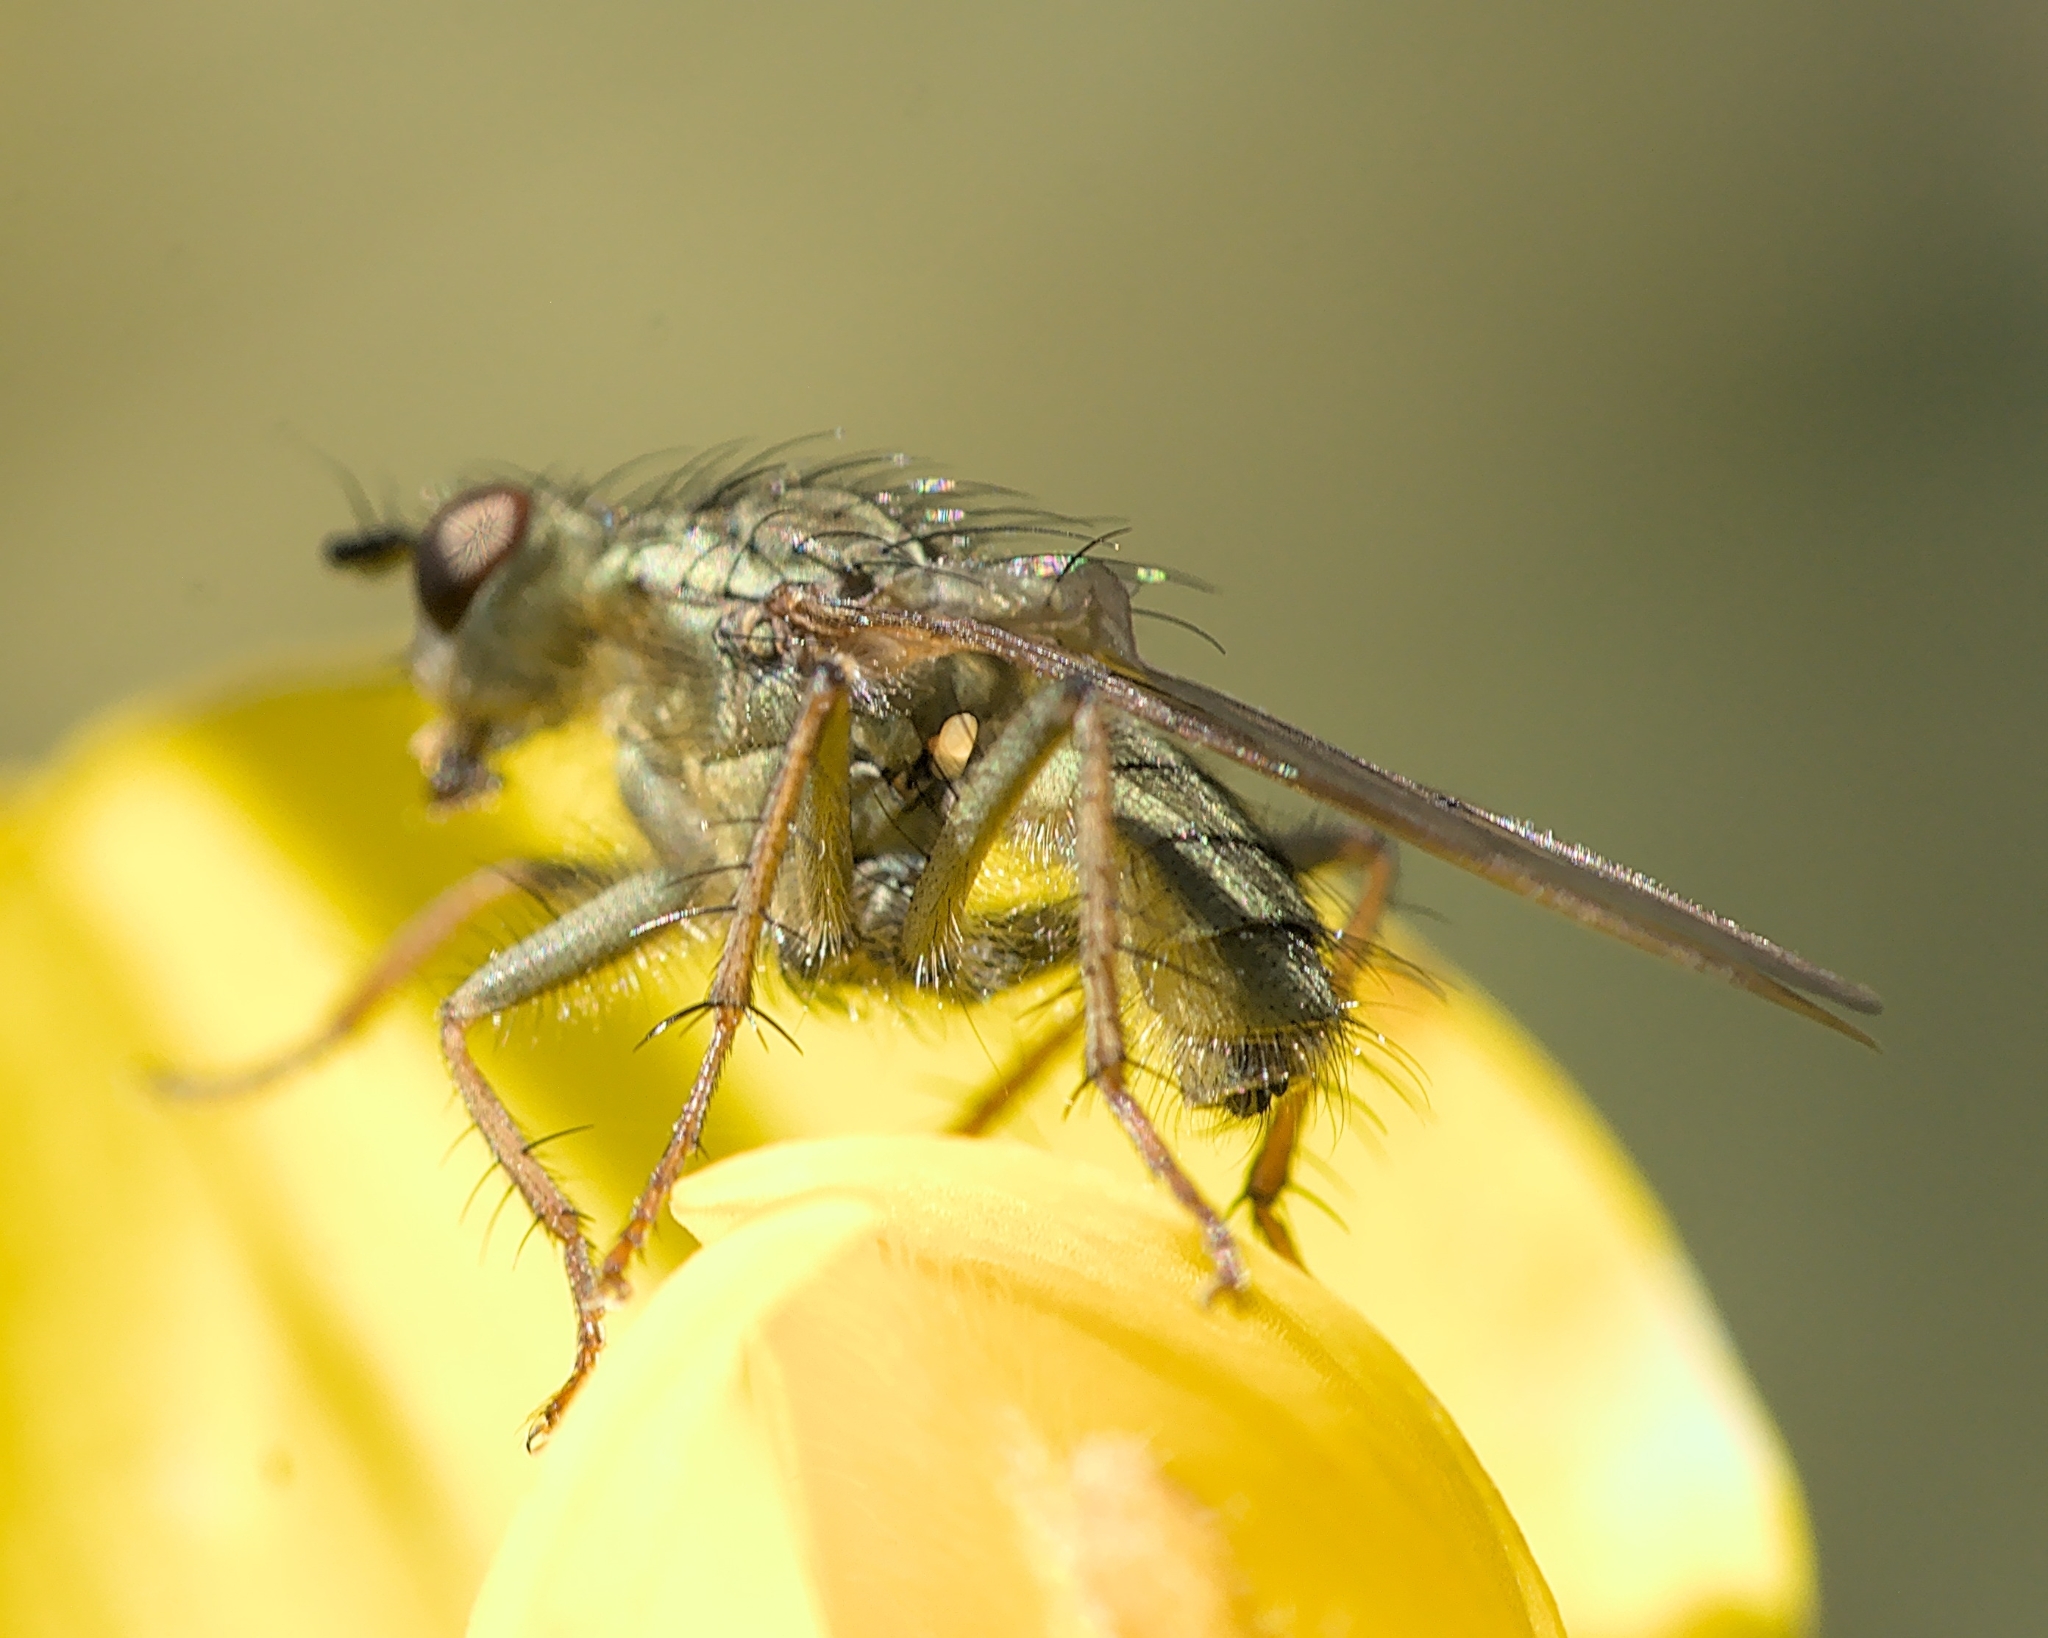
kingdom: Animalia
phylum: Arthropoda
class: Insecta
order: Diptera
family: Scathophagidae
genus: Scathophaga
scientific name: Scathophaga stercoraria
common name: Yellow dung fly
